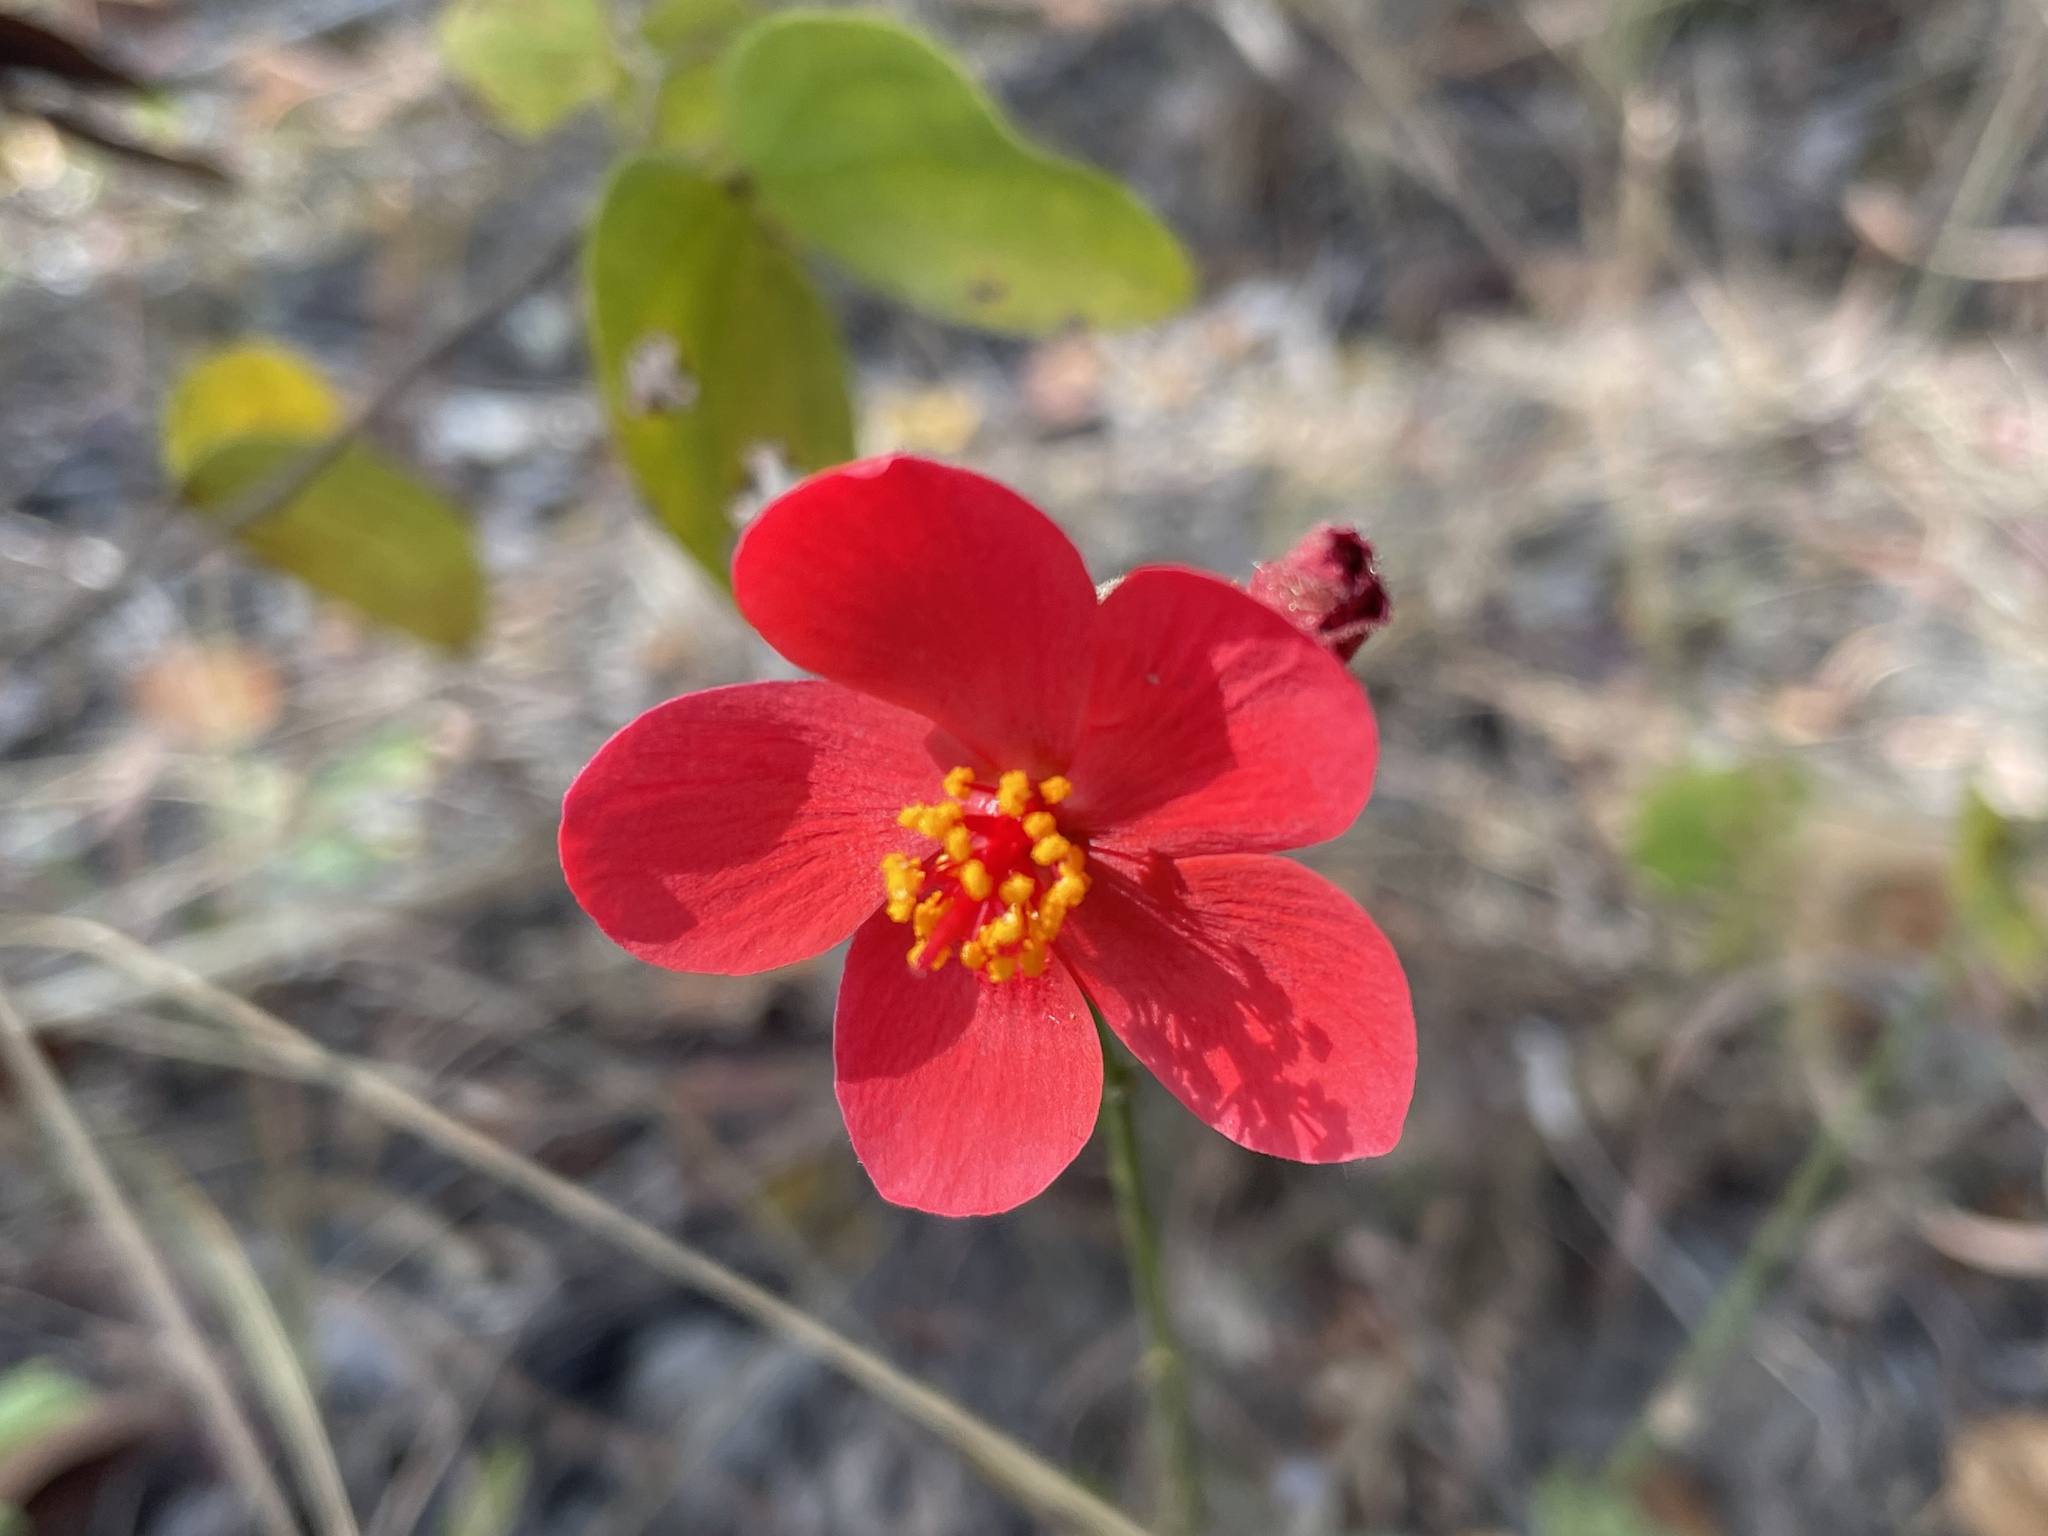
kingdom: Plantae
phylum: Tracheophyta
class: Magnoliopsida
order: Malvales
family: Malvaceae
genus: Hibiscus
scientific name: Hibiscus rhodanthus
